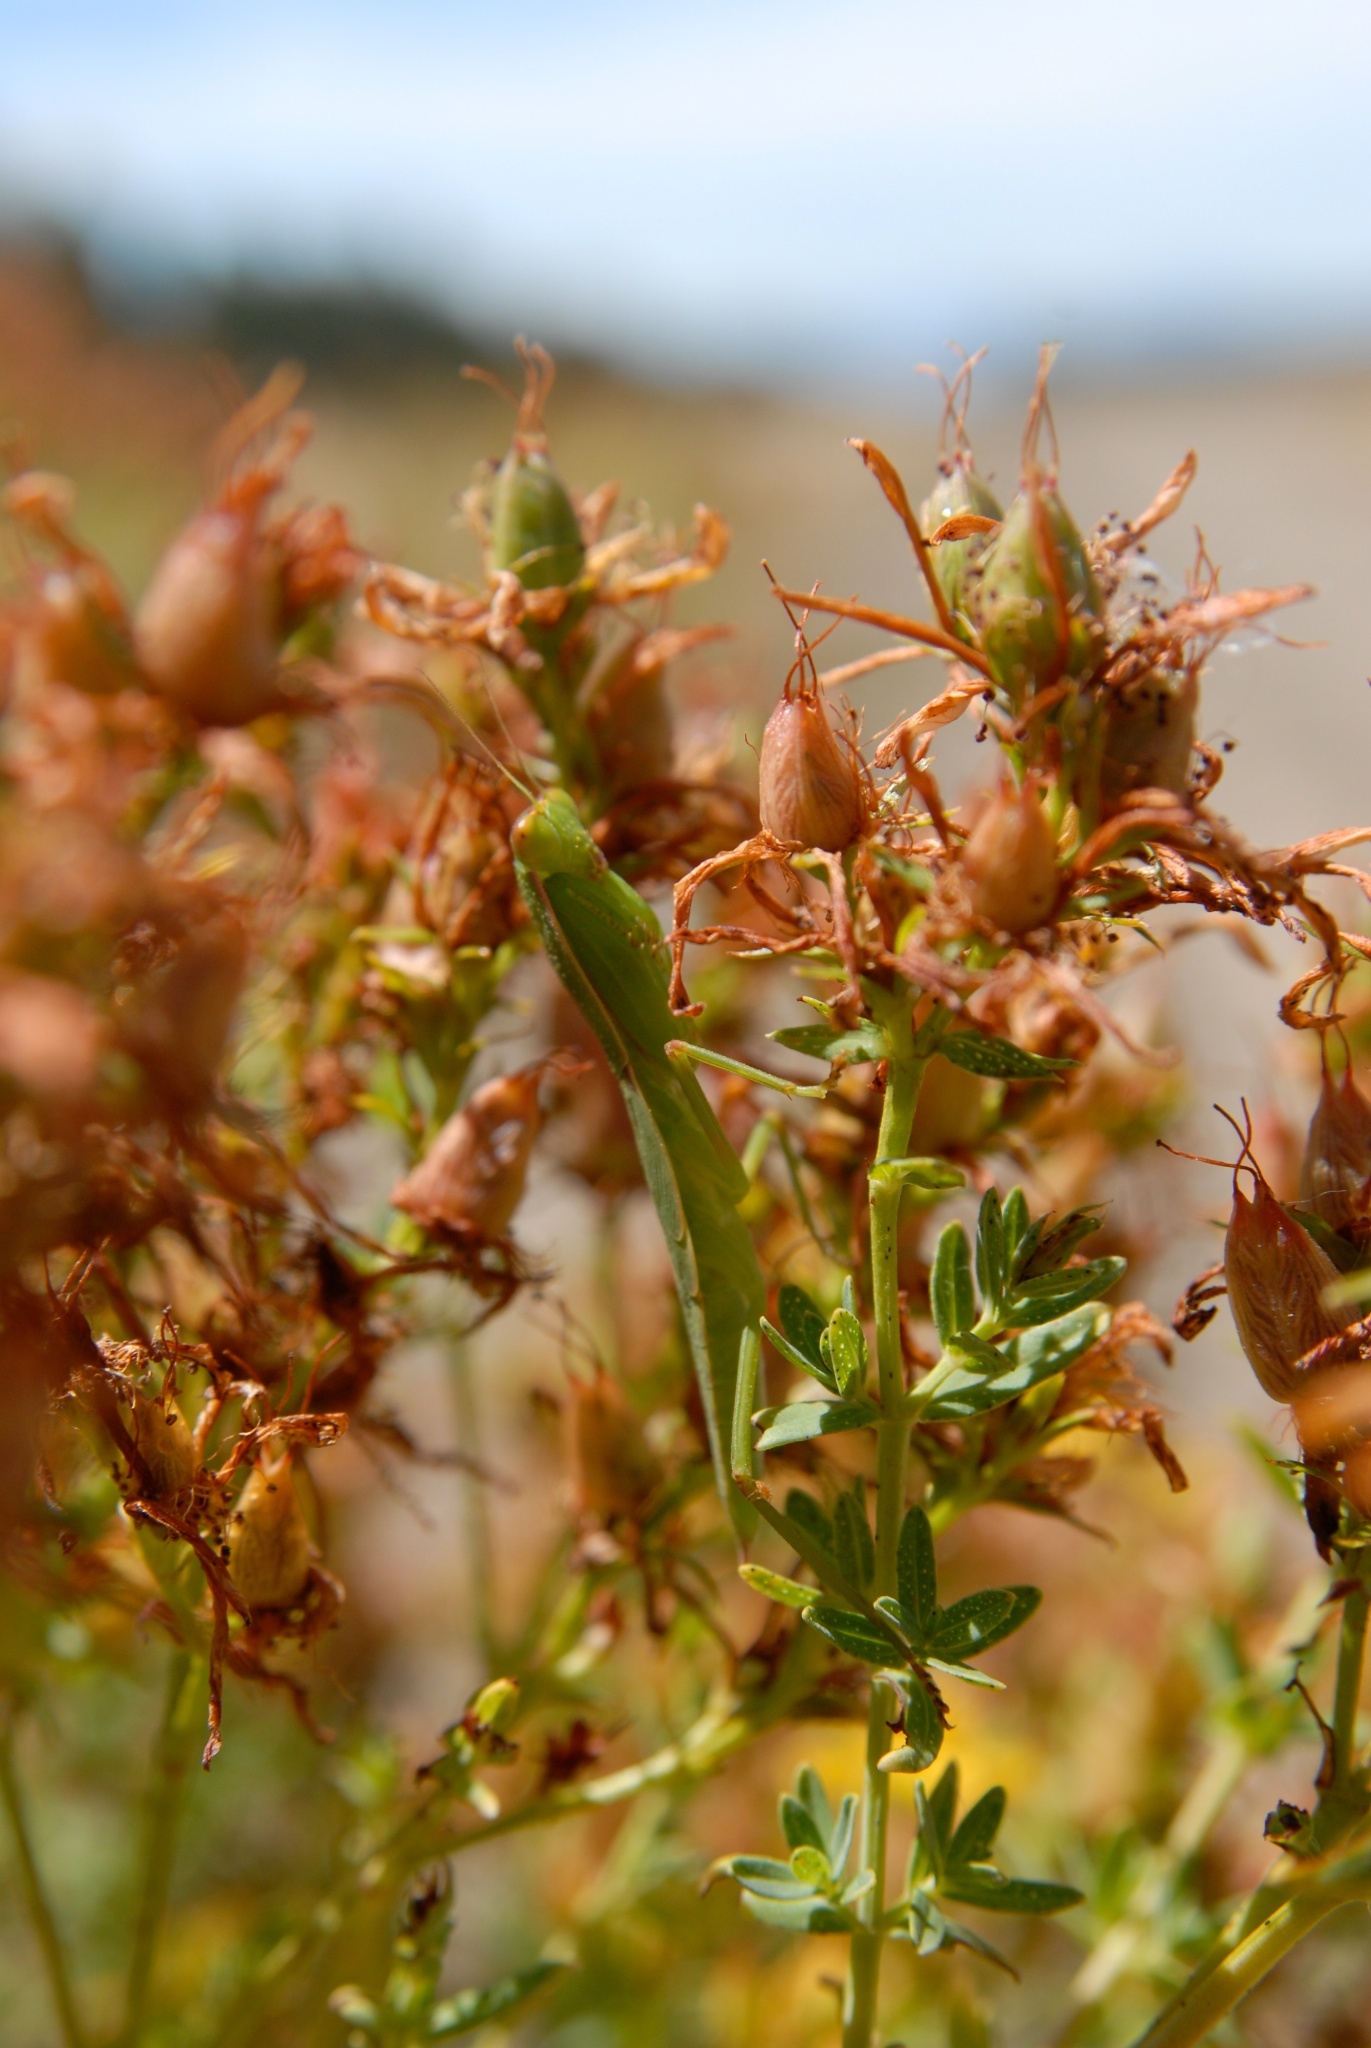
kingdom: Animalia
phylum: Arthropoda
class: Insecta
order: Mantodea
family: Mantidae
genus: Orthodera
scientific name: Orthodera novaezealandiae
